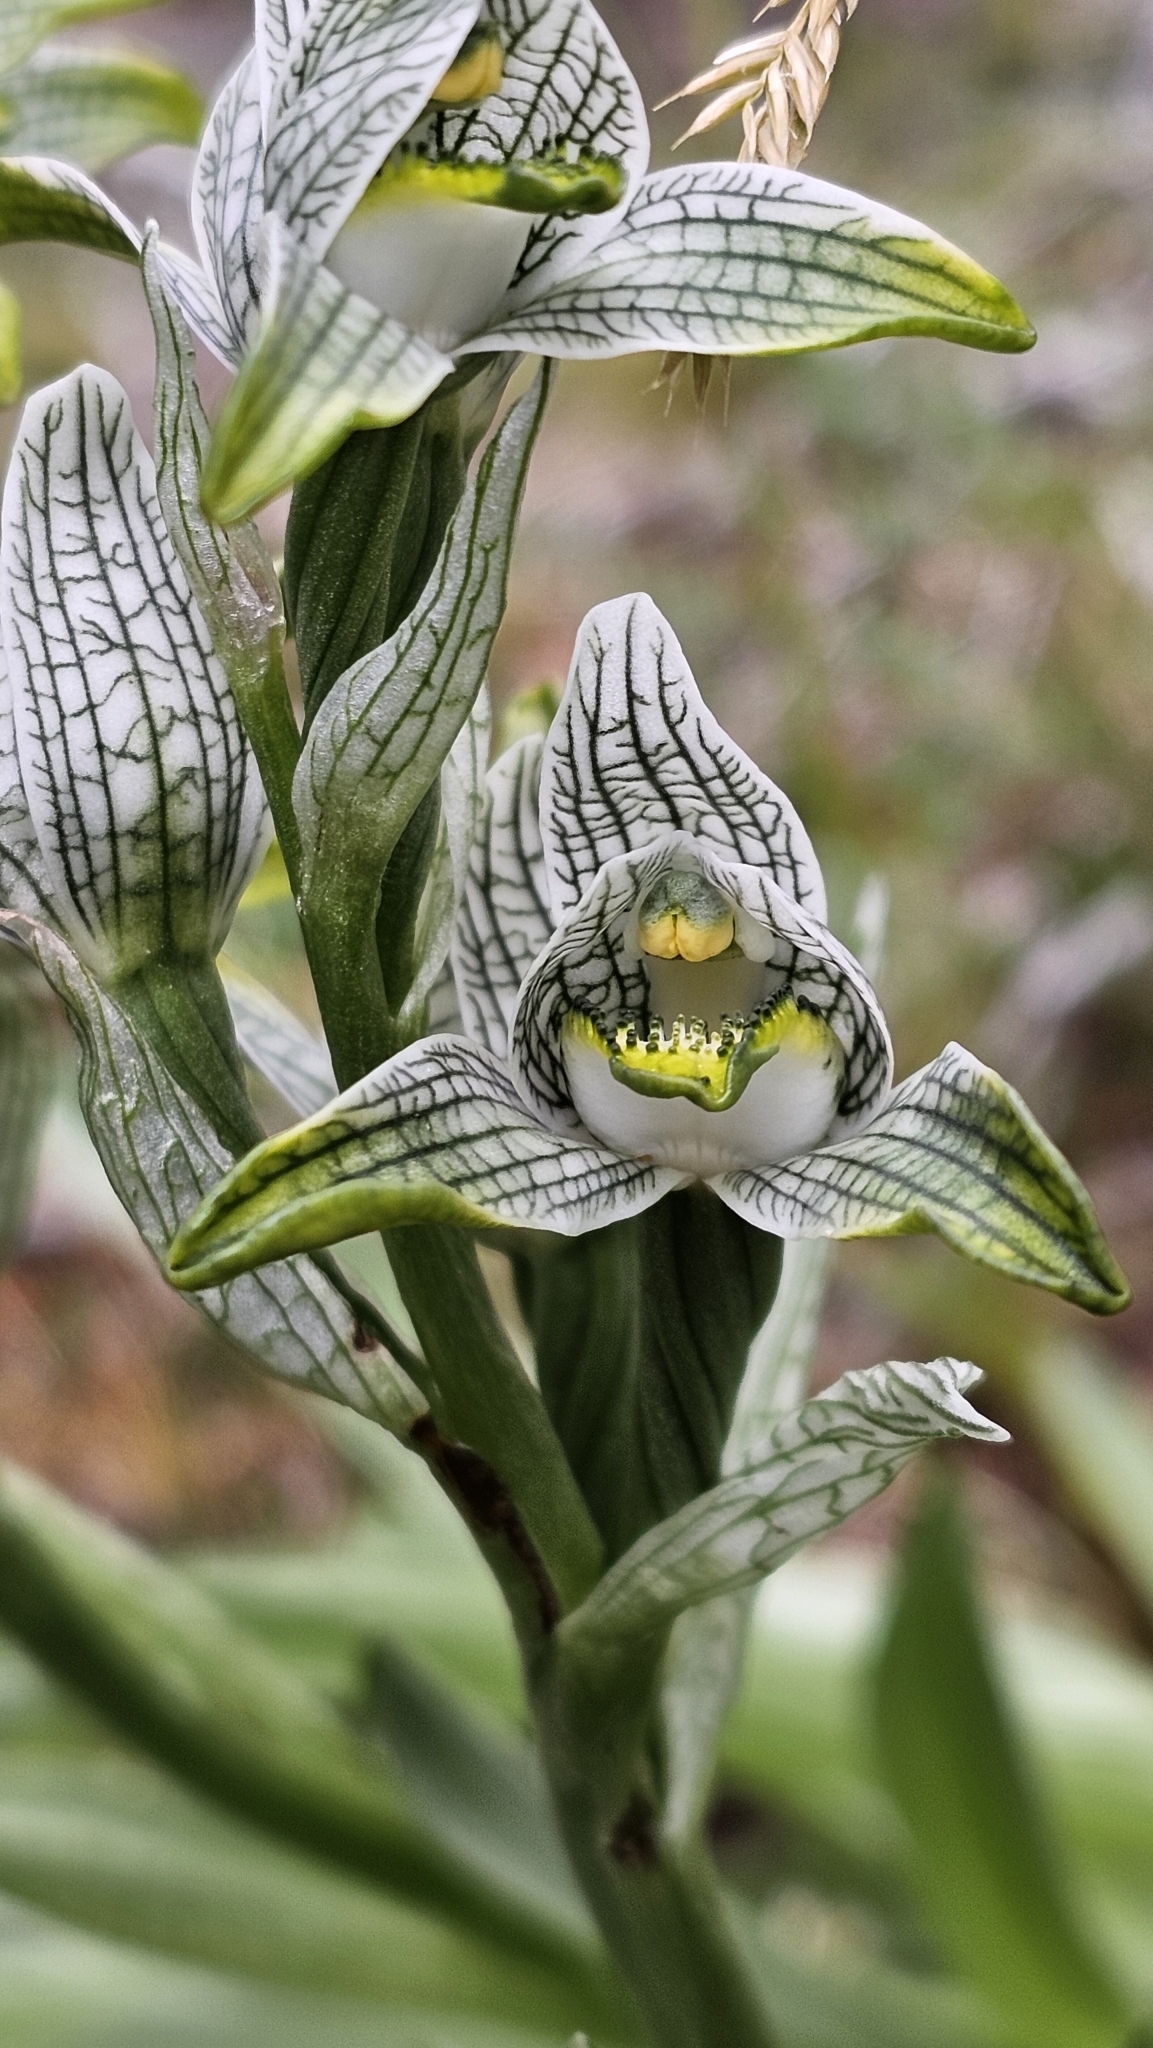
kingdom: Plantae
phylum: Tracheophyta
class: Liliopsida
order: Asparagales
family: Orchidaceae
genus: Chloraea
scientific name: Chloraea magellanica
